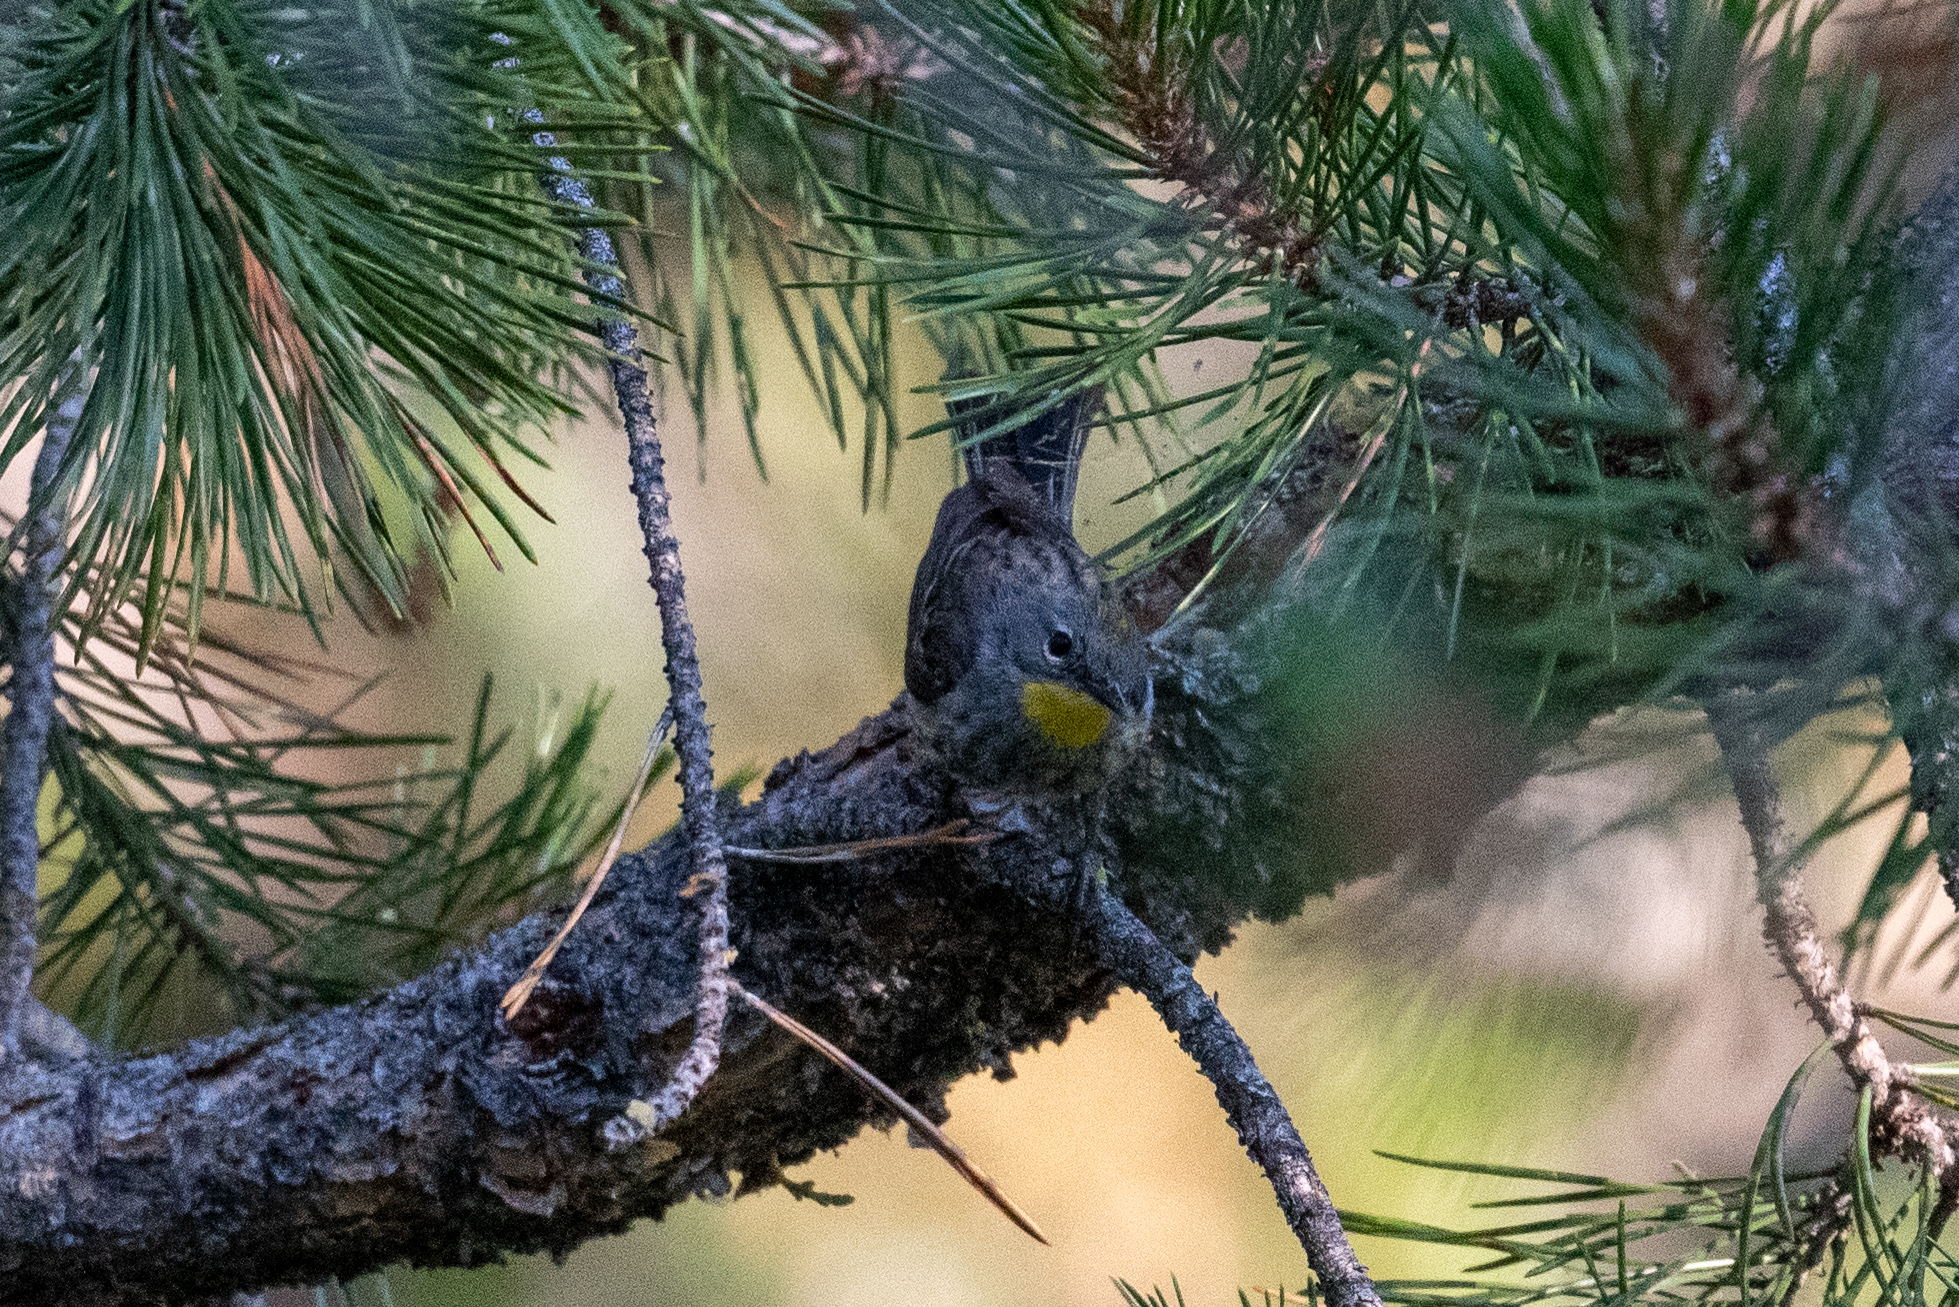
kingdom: Animalia
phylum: Chordata
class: Aves
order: Passeriformes
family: Parulidae
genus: Setophaga
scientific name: Setophaga auduboni
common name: Audubon's warbler
